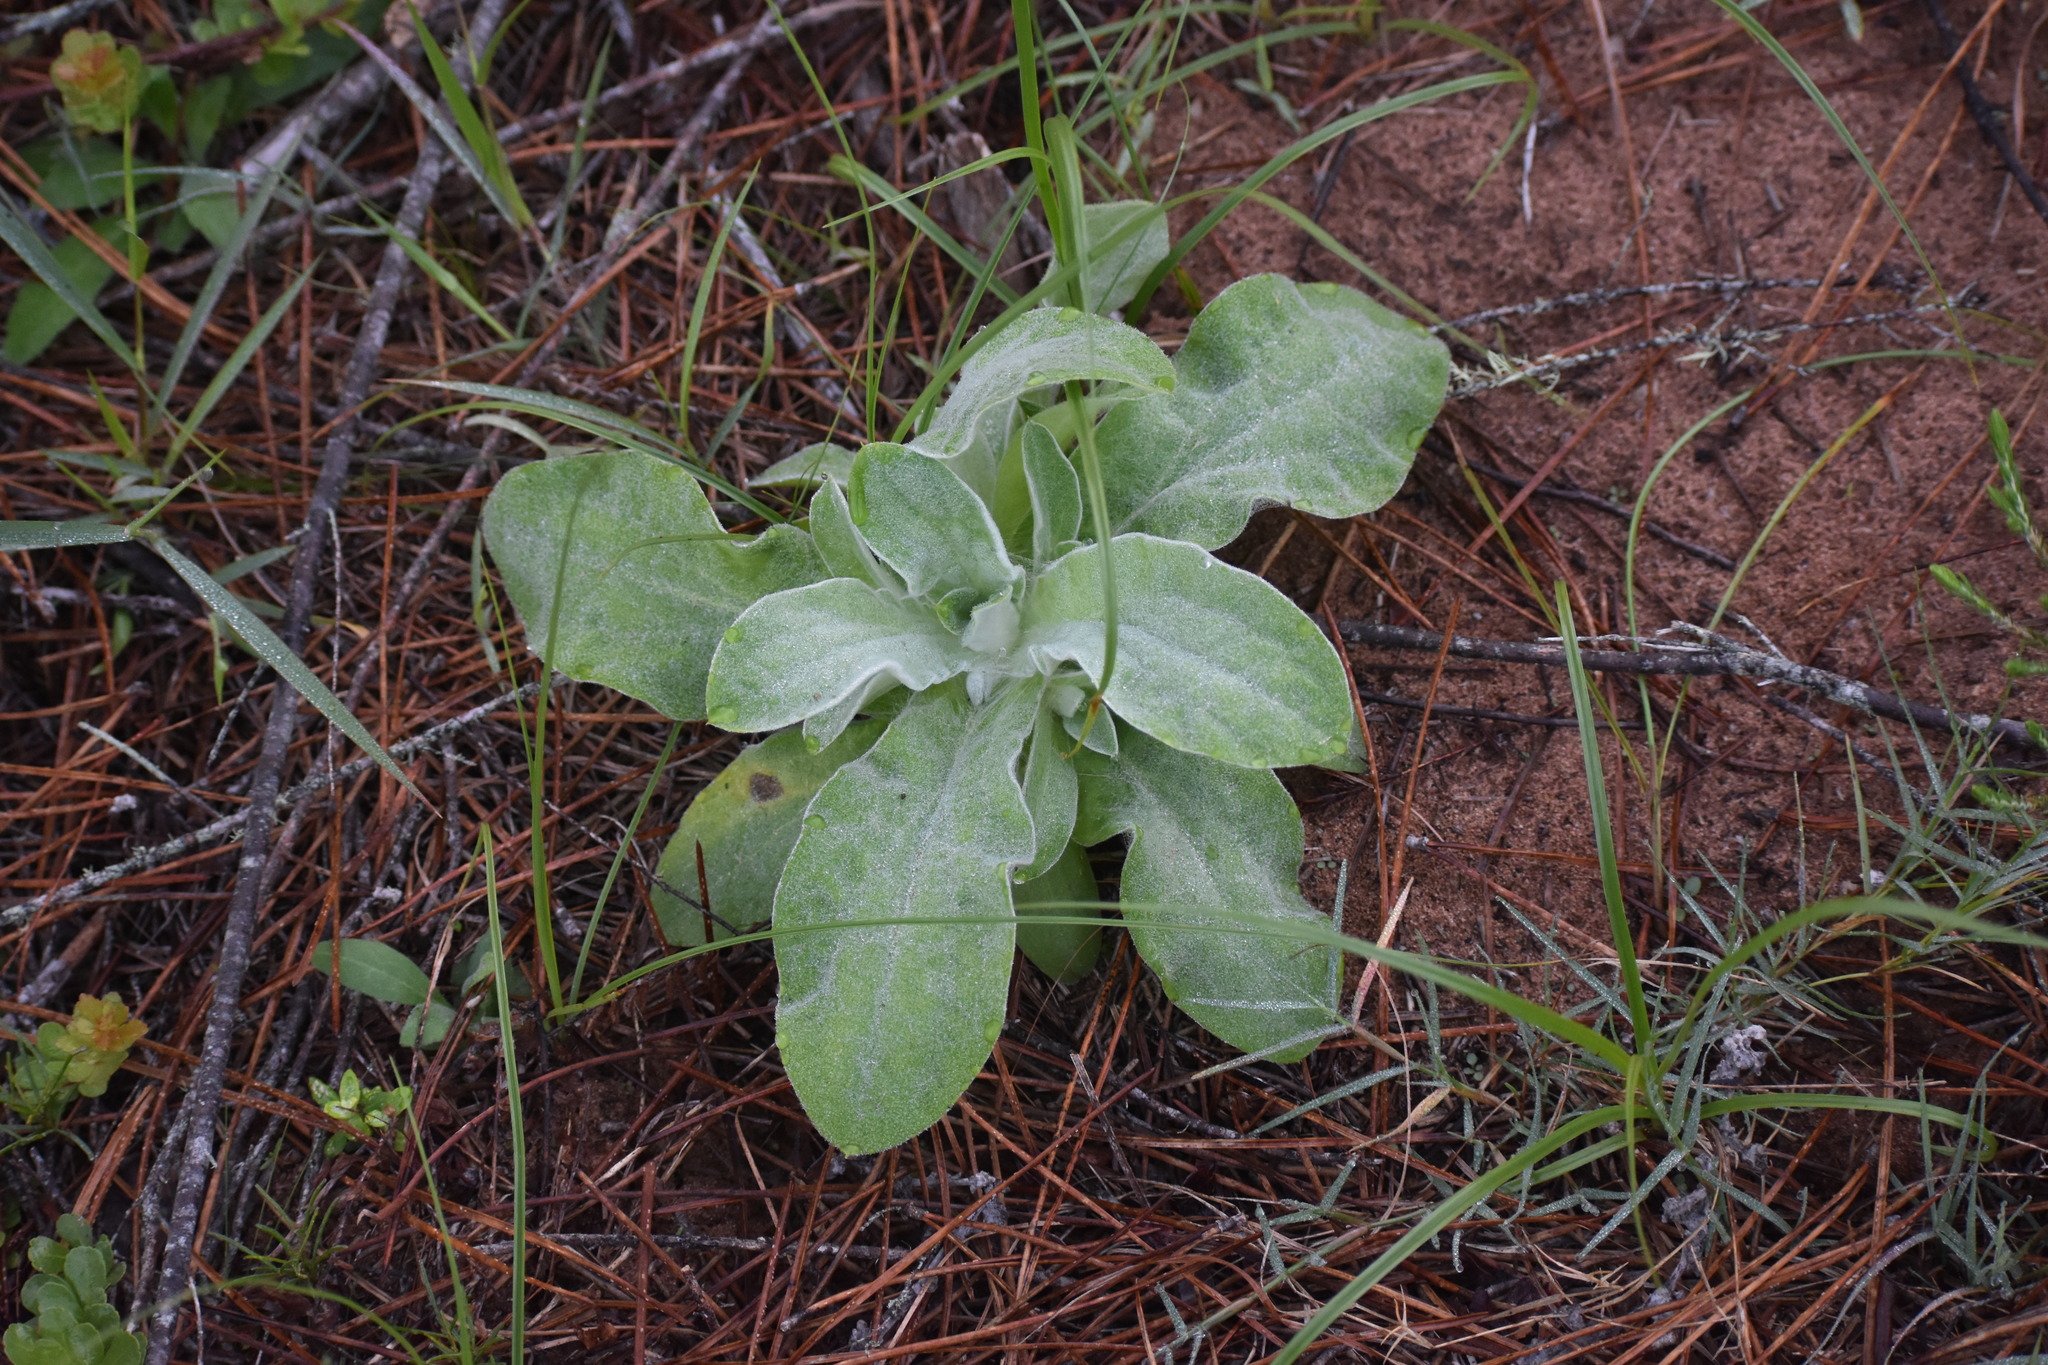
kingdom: Plantae
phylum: Tracheophyta
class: Magnoliopsida
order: Asterales
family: Asteraceae
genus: Helichrysum
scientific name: Helichrysum foetidum
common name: Stinking everlasting
